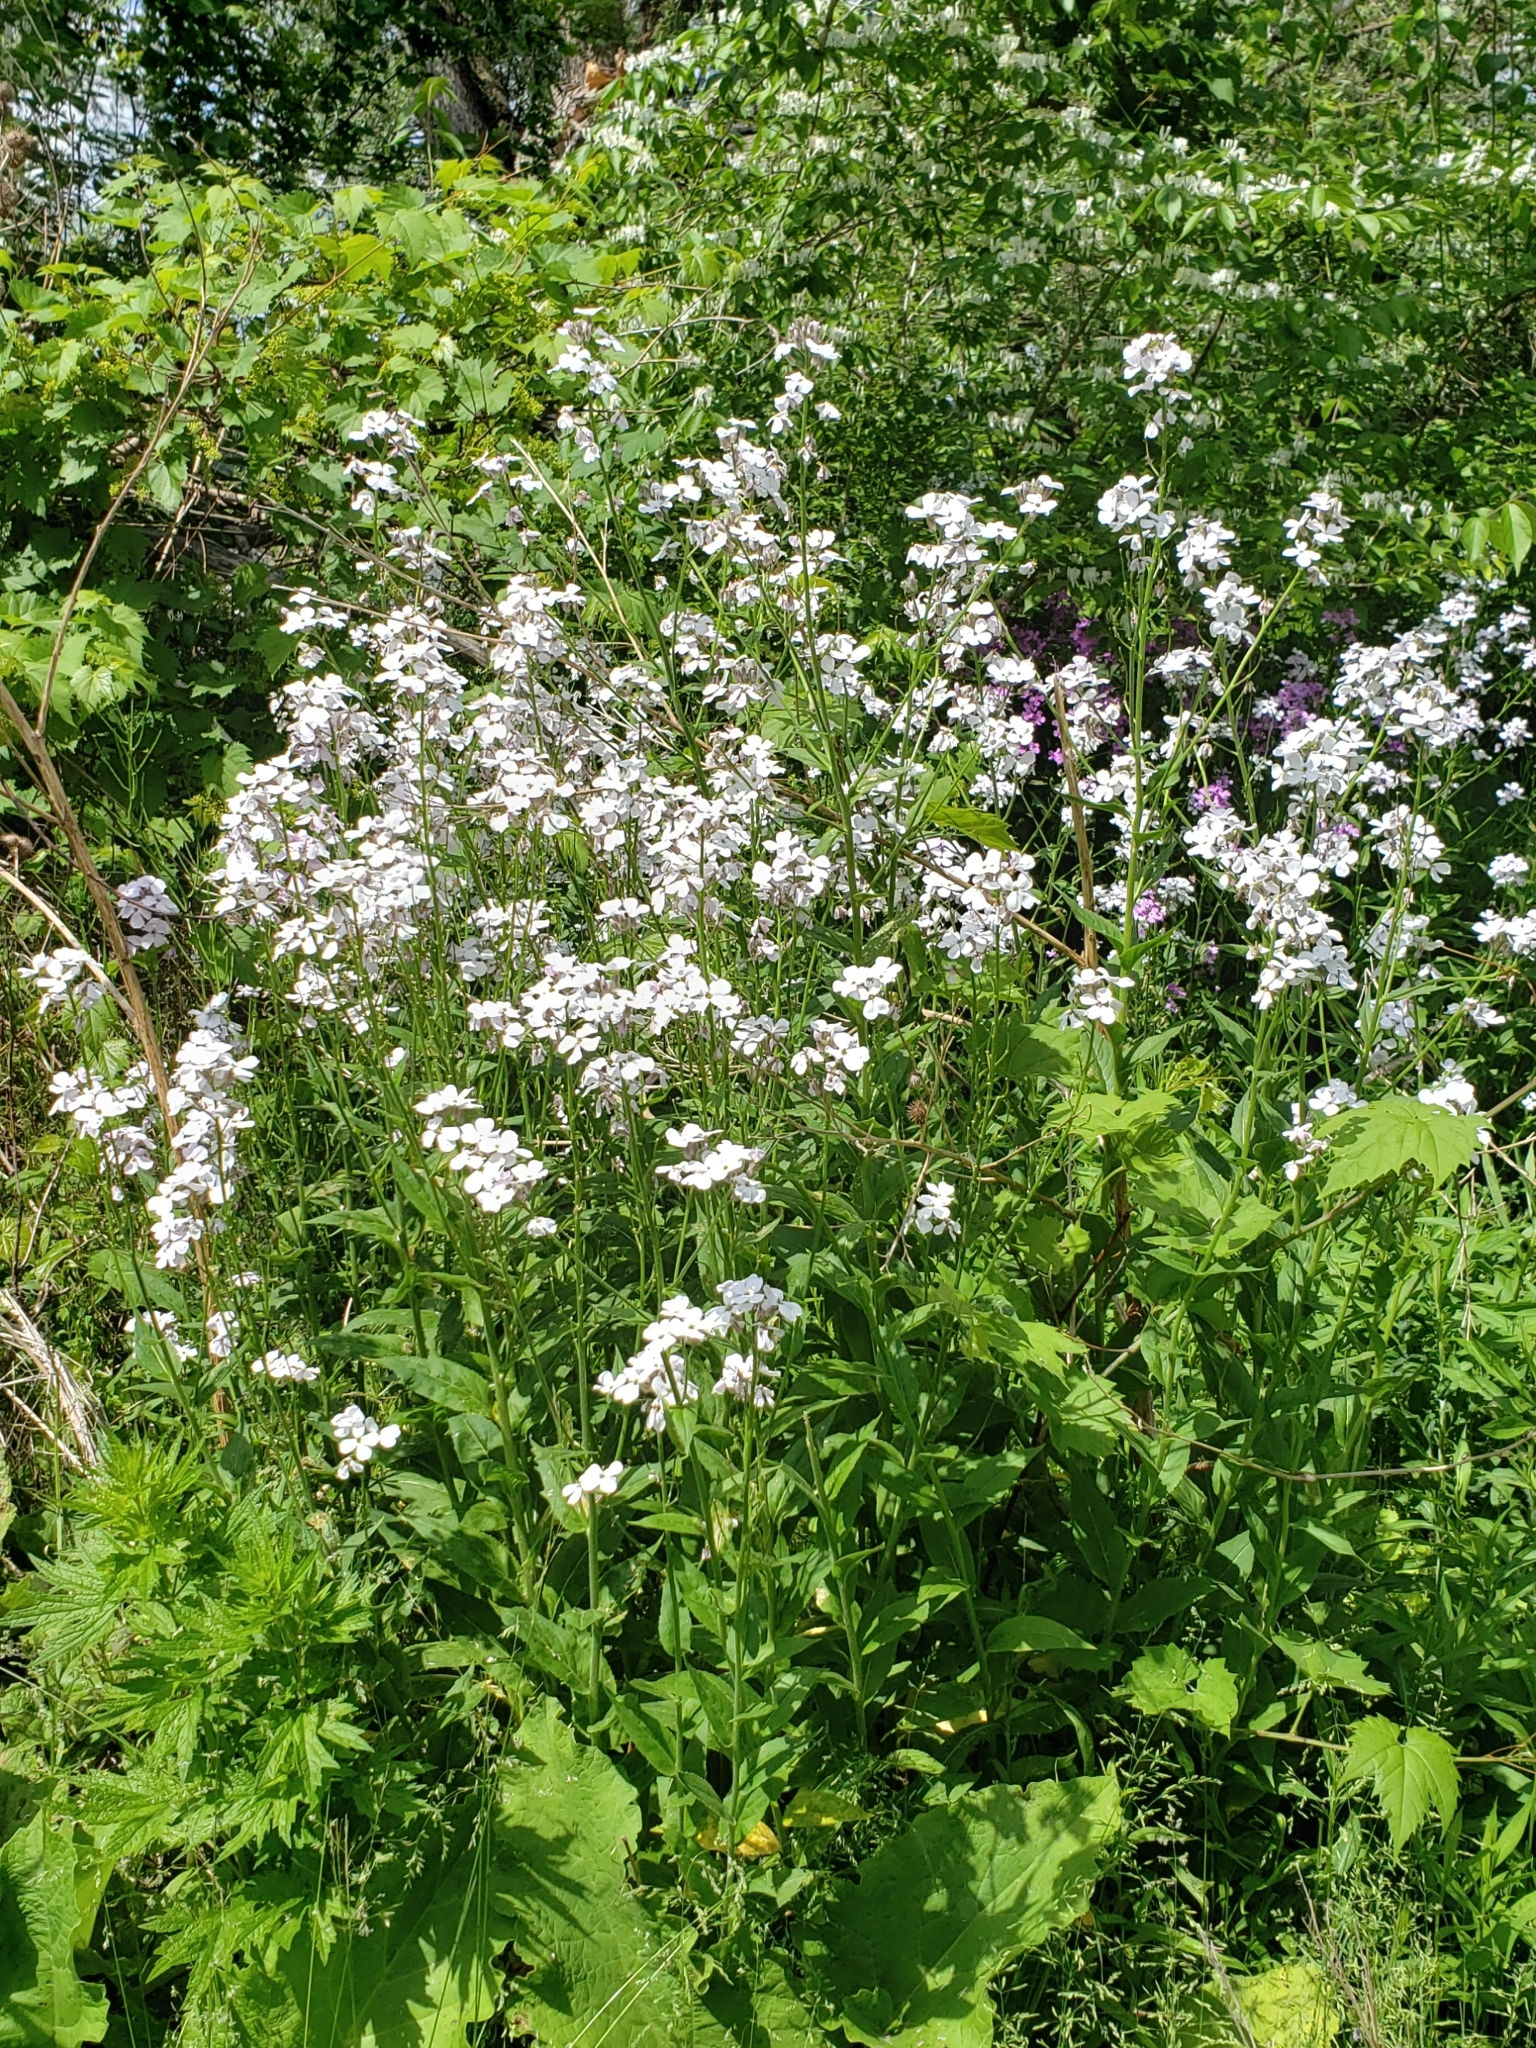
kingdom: Plantae
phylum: Tracheophyta
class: Magnoliopsida
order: Brassicales
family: Brassicaceae
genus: Hesperis
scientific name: Hesperis matronalis
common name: Dame's-violet
